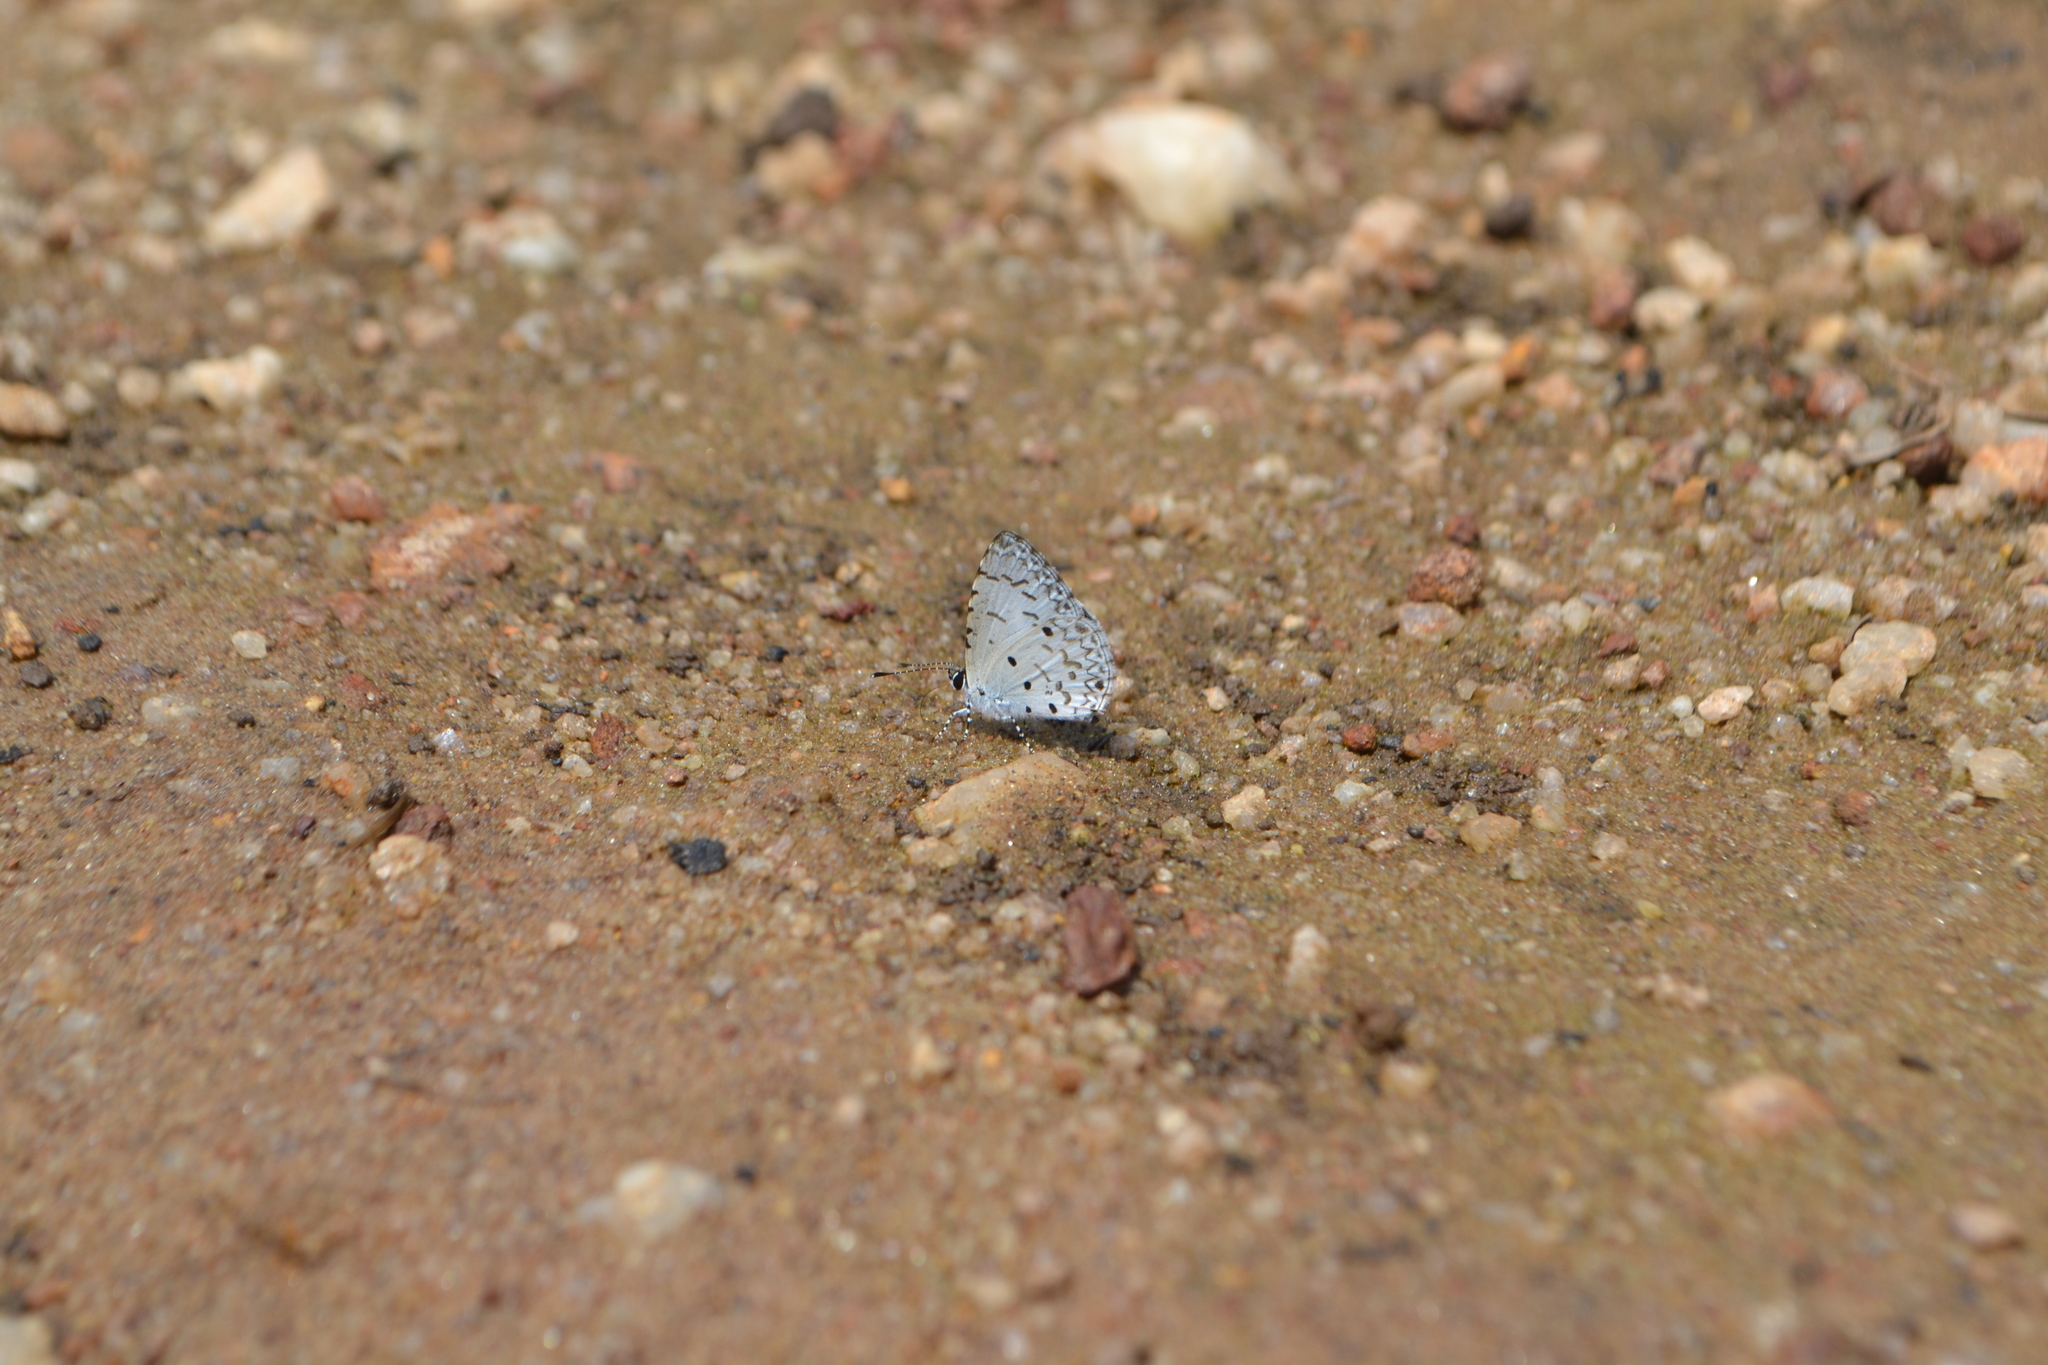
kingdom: Animalia
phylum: Arthropoda
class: Insecta
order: Lepidoptera
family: Lycaenidae
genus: Megisba
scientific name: Megisba malaya
